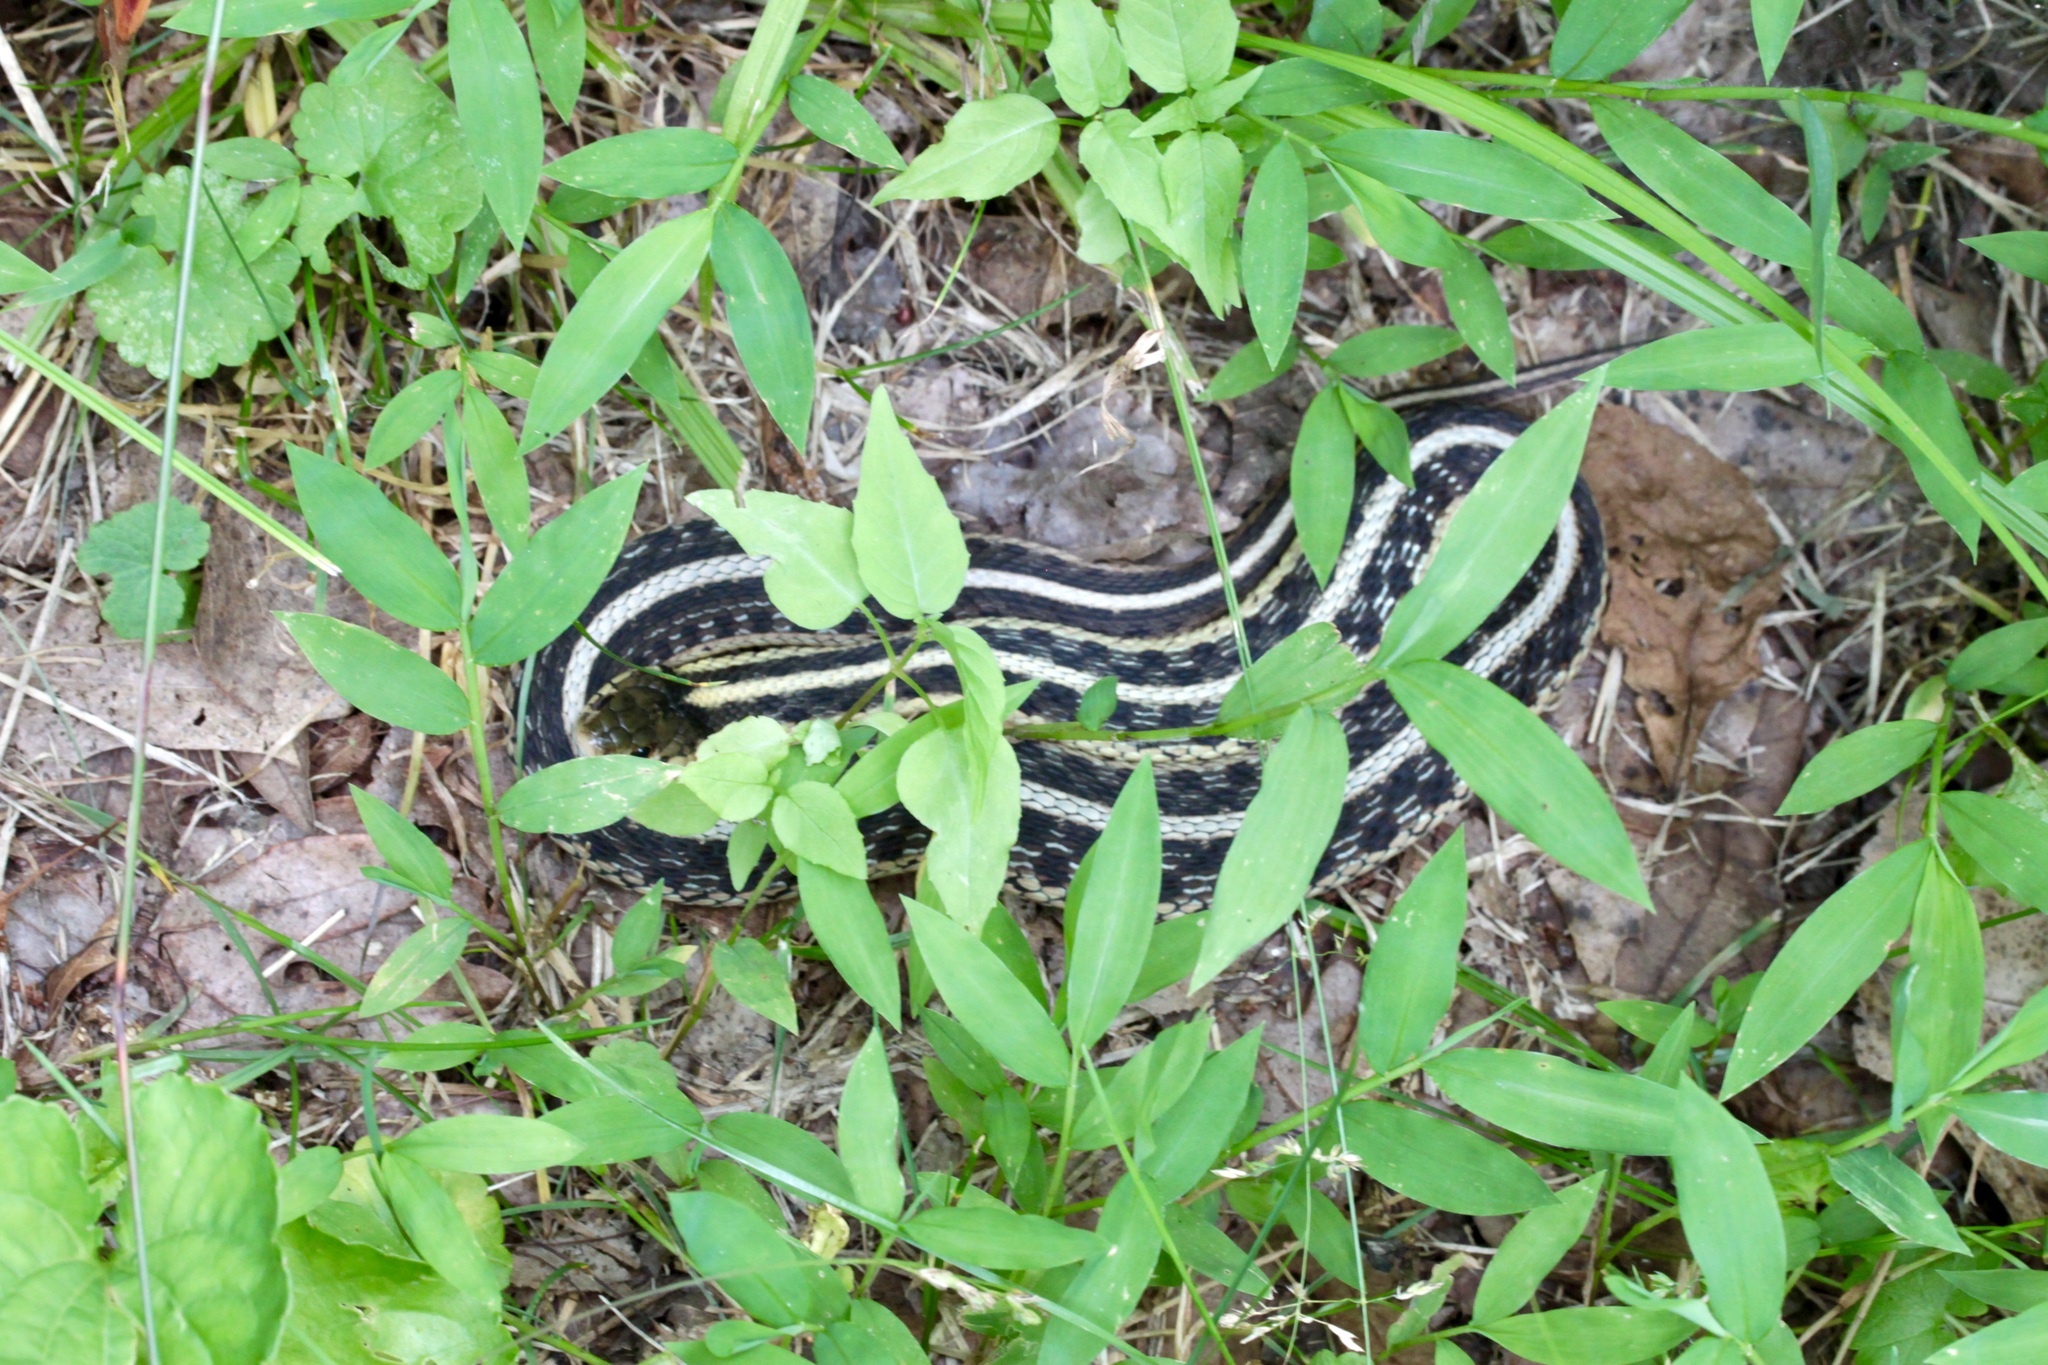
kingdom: Animalia
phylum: Chordata
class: Squamata
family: Colubridae
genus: Thamnophis
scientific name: Thamnophis sirtalis
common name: Common garter snake
